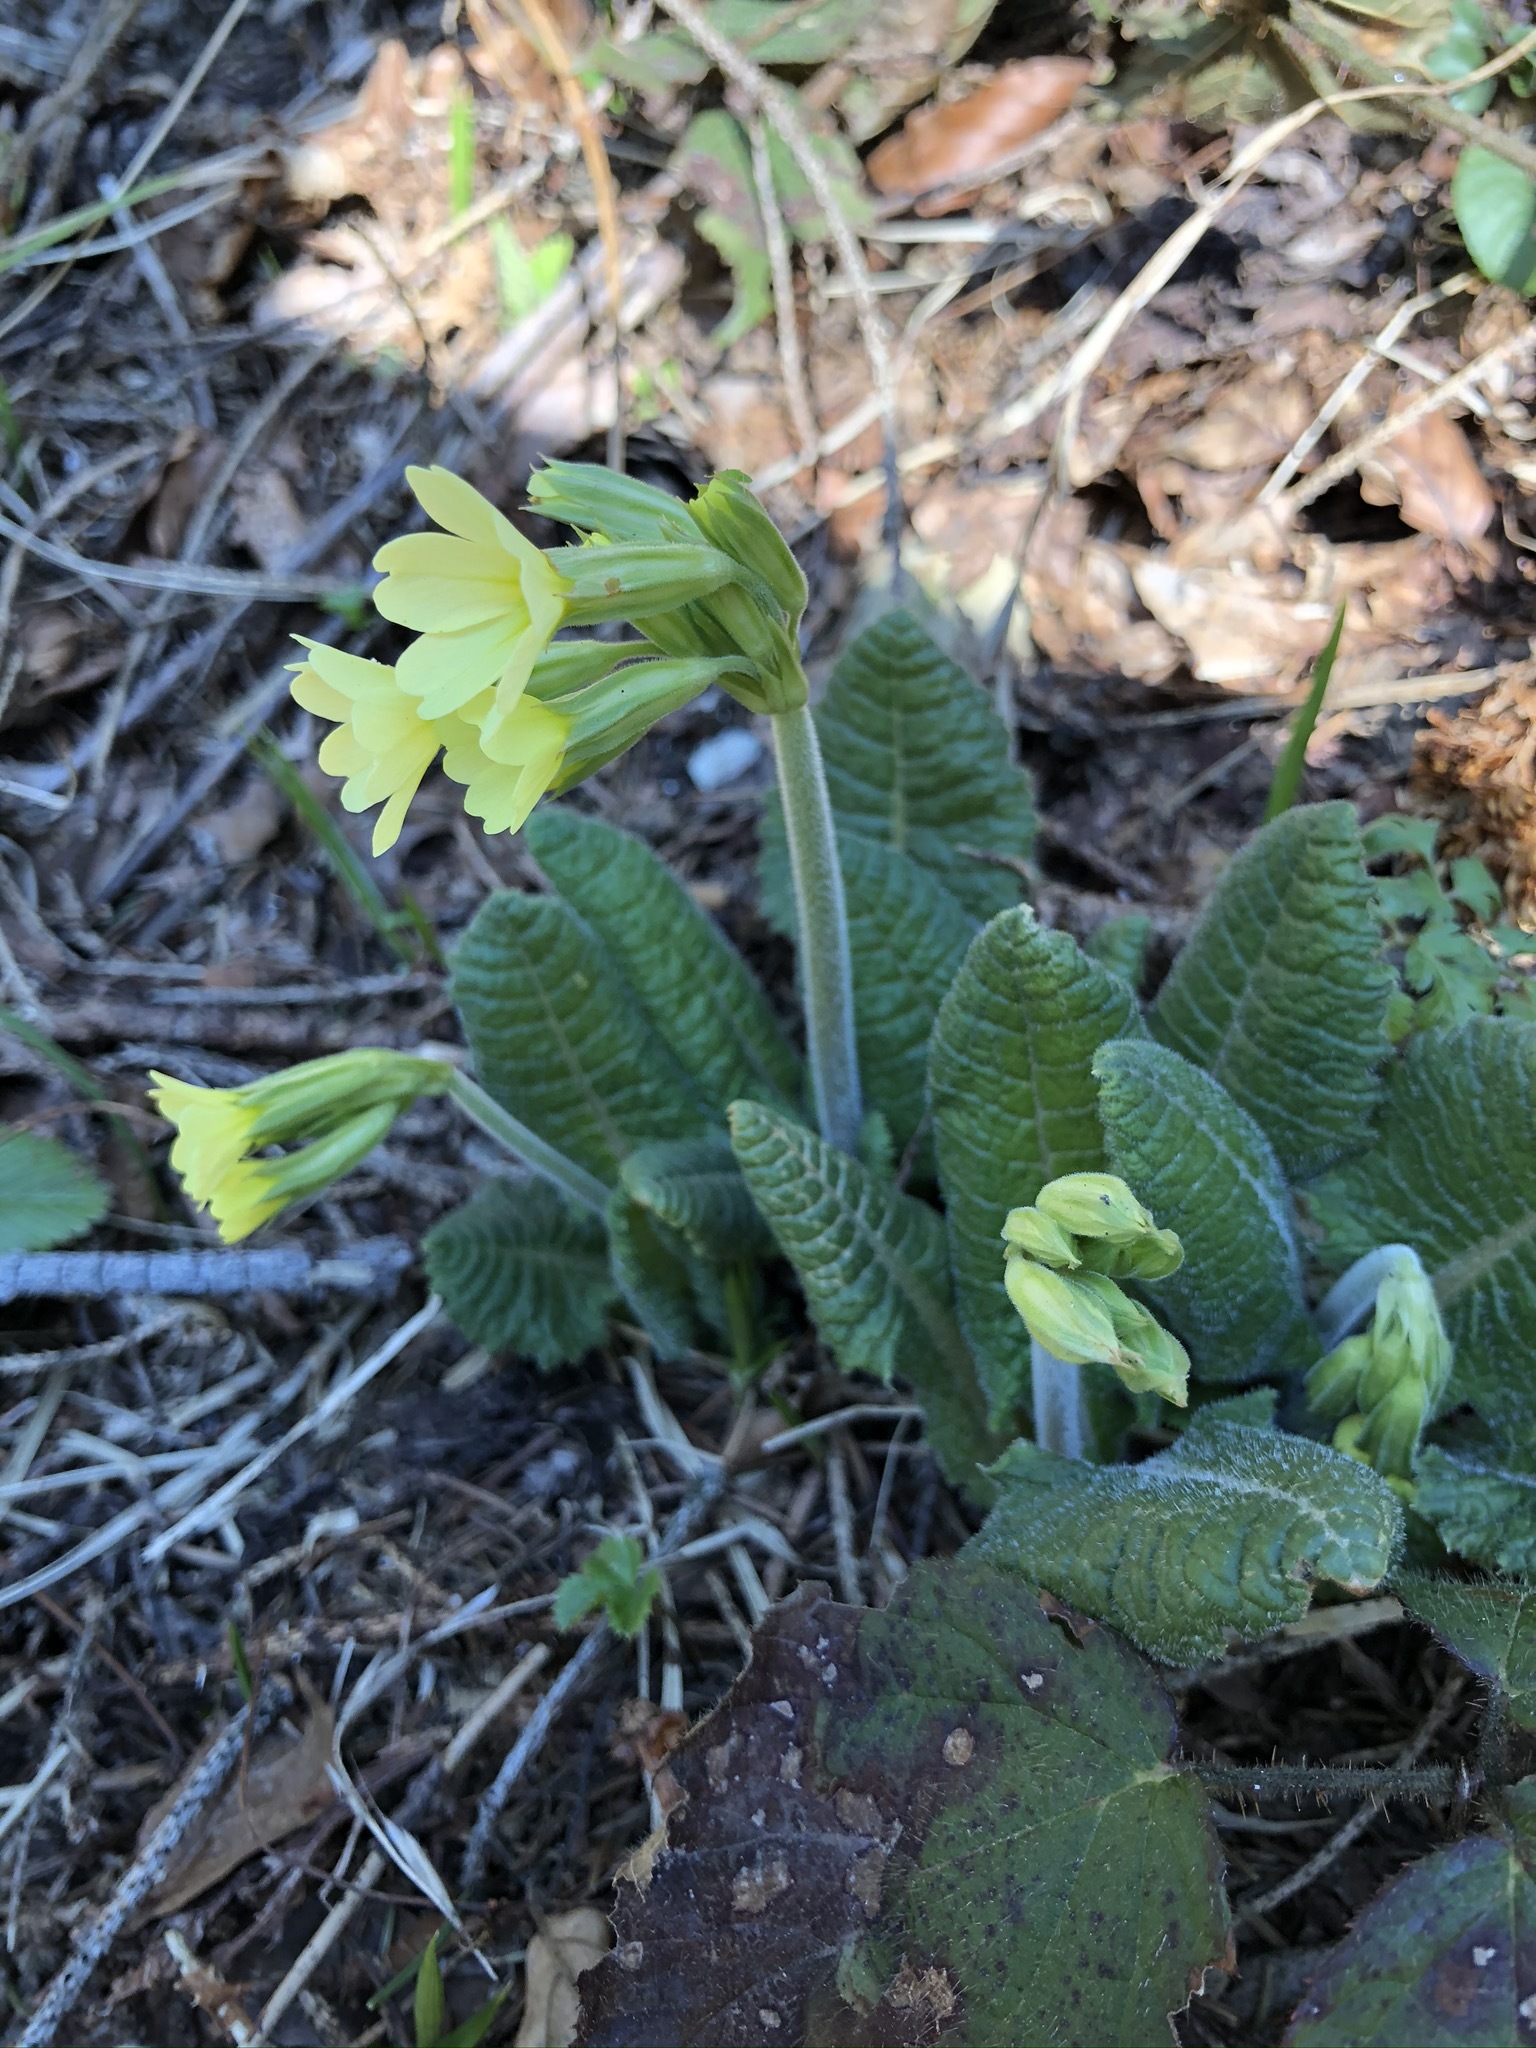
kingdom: Plantae
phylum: Tracheophyta
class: Magnoliopsida
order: Ericales
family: Primulaceae
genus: Primula
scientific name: Primula elatior
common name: Oxlip
